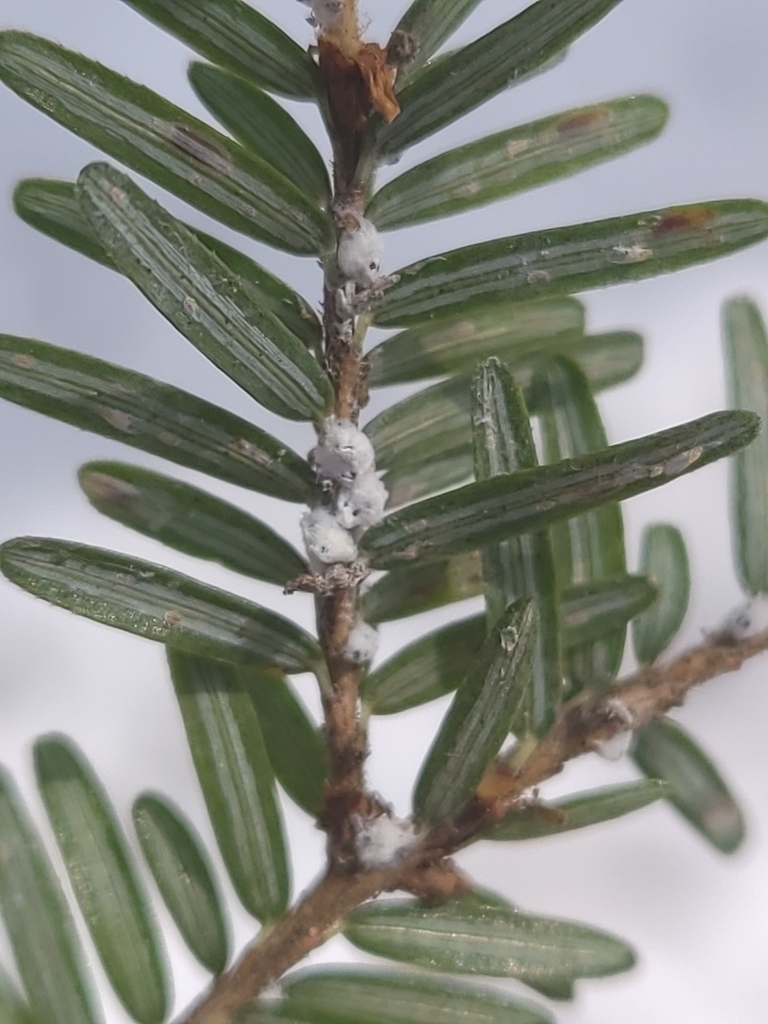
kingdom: Animalia
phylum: Arthropoda
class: Insecta
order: Hemiptera
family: Adelgidae
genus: Adelges
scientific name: Adelges tsugae
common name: Hemlock woolly adelgid
